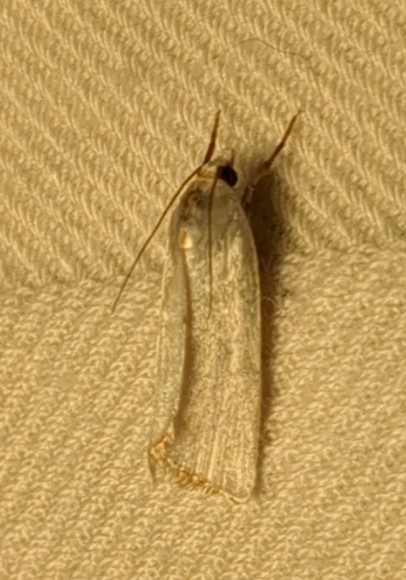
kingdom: Animalia
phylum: Arthropoda
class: Insecta
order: Lepidoptera
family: Crambidae
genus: Argyria
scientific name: Argyria nivalis
